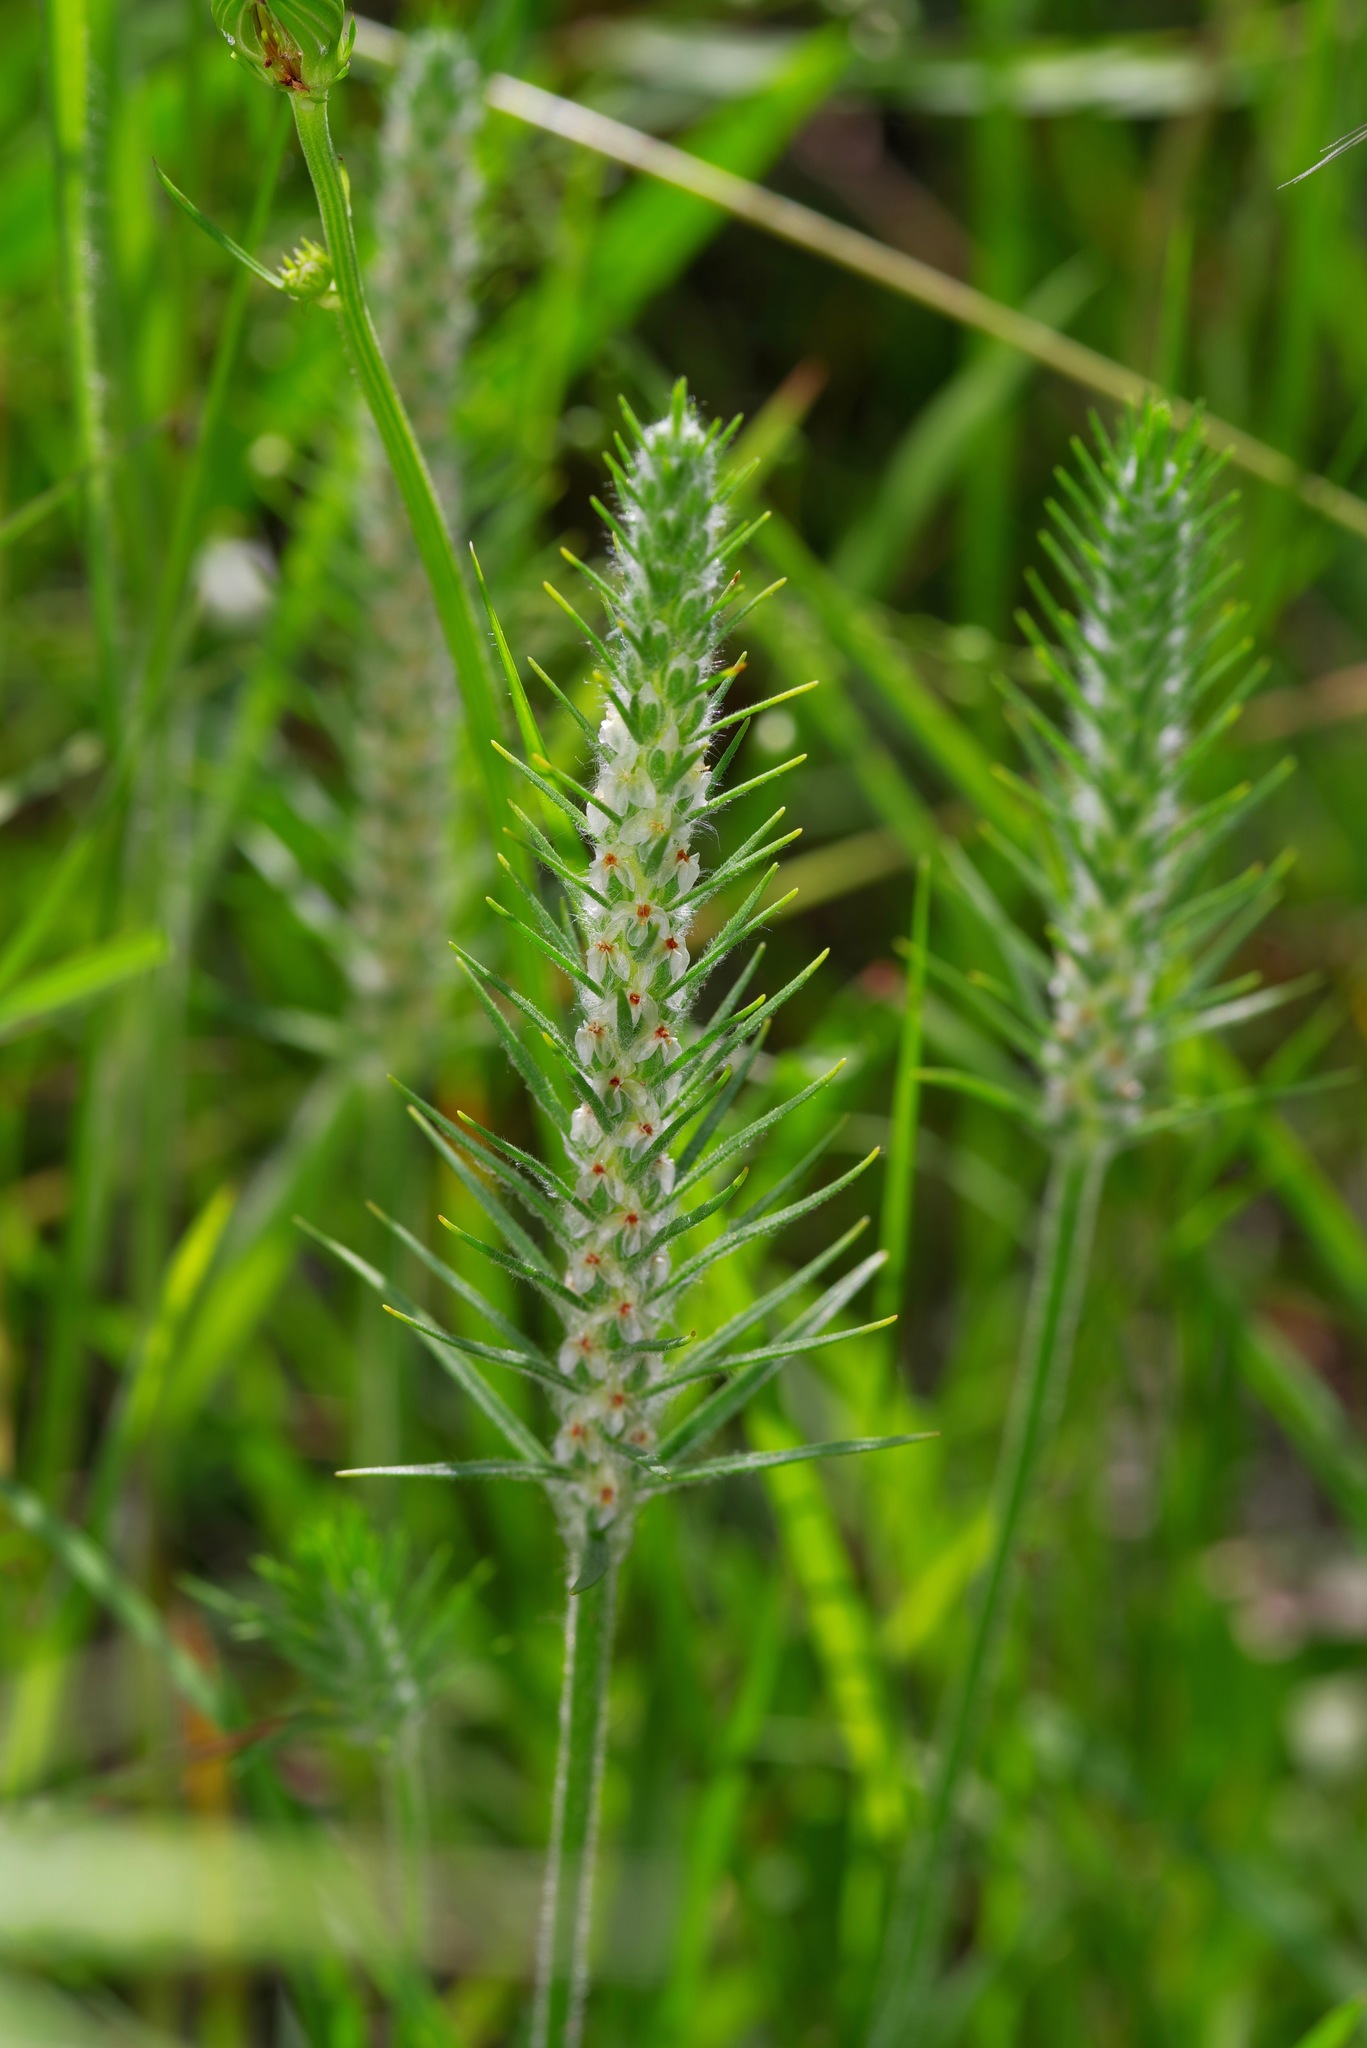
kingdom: Plantae
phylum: Tracheophyta
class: Magnoliopsida
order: Lamiales
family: Plantaginaceae
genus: Plantago
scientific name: Plantago aristata
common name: Bracted plantain
